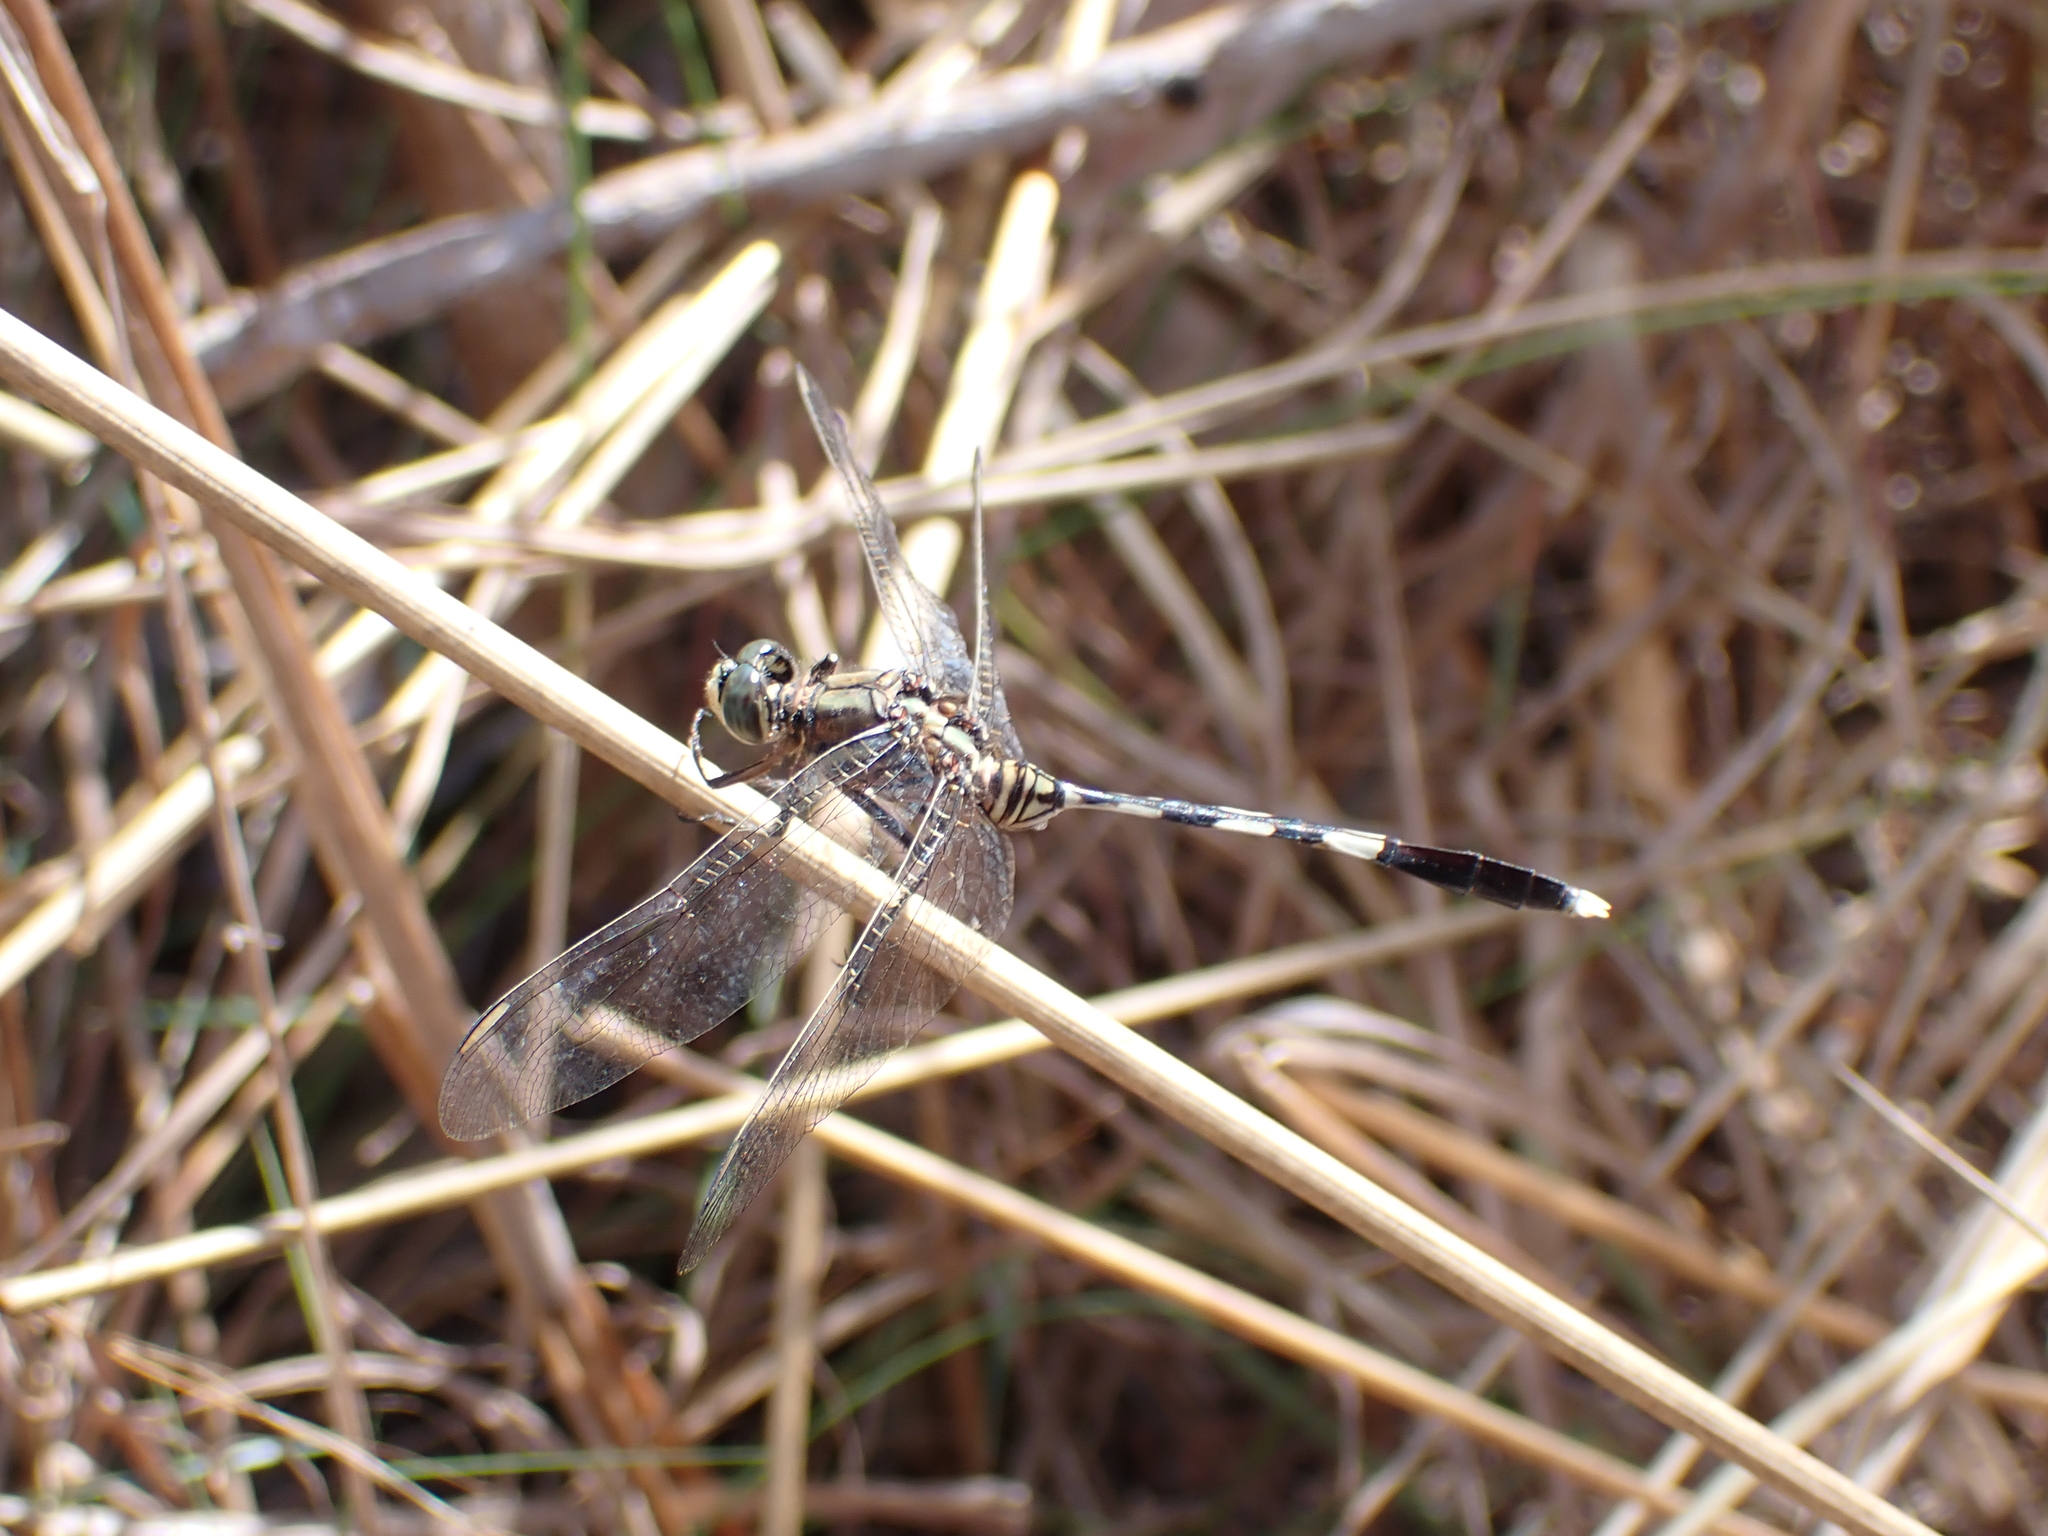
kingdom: Animalia
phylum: Arthropoda
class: Insecta
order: Odonata
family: Libellulidae
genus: Orthetrum
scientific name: Orthetrum sabina
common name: Slender skimmer
